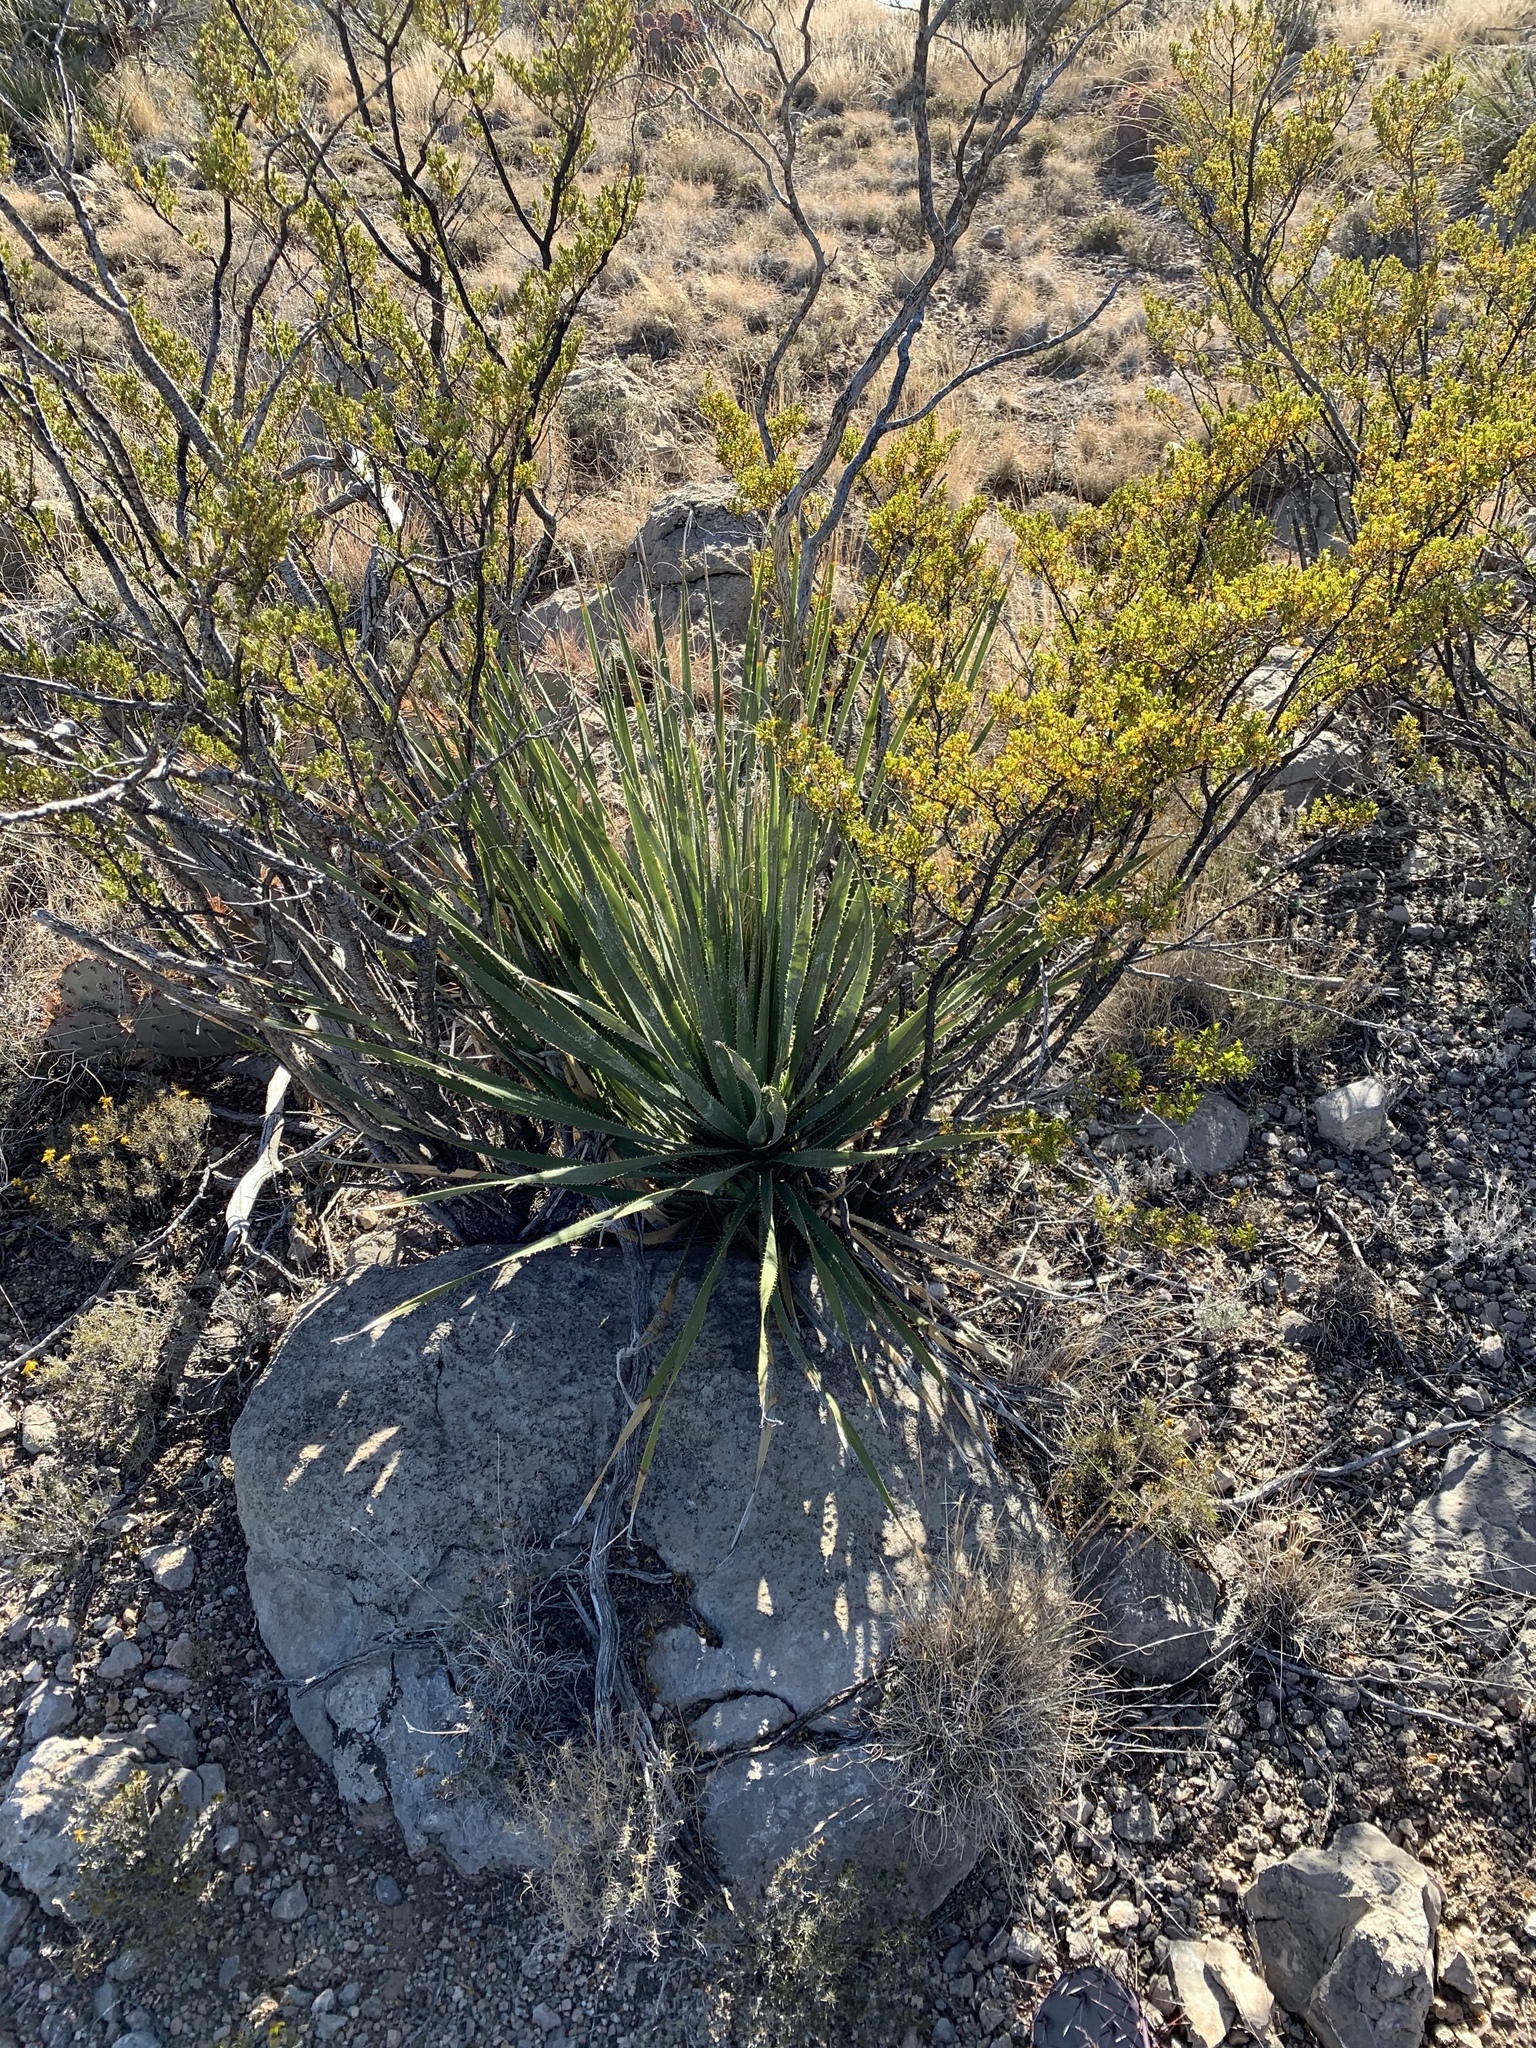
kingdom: Plantae
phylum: Tracheophyta
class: Liliopsida
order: Asparagales
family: Asparagaceae
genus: Dasylirion
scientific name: Dasylirion wheeleri
